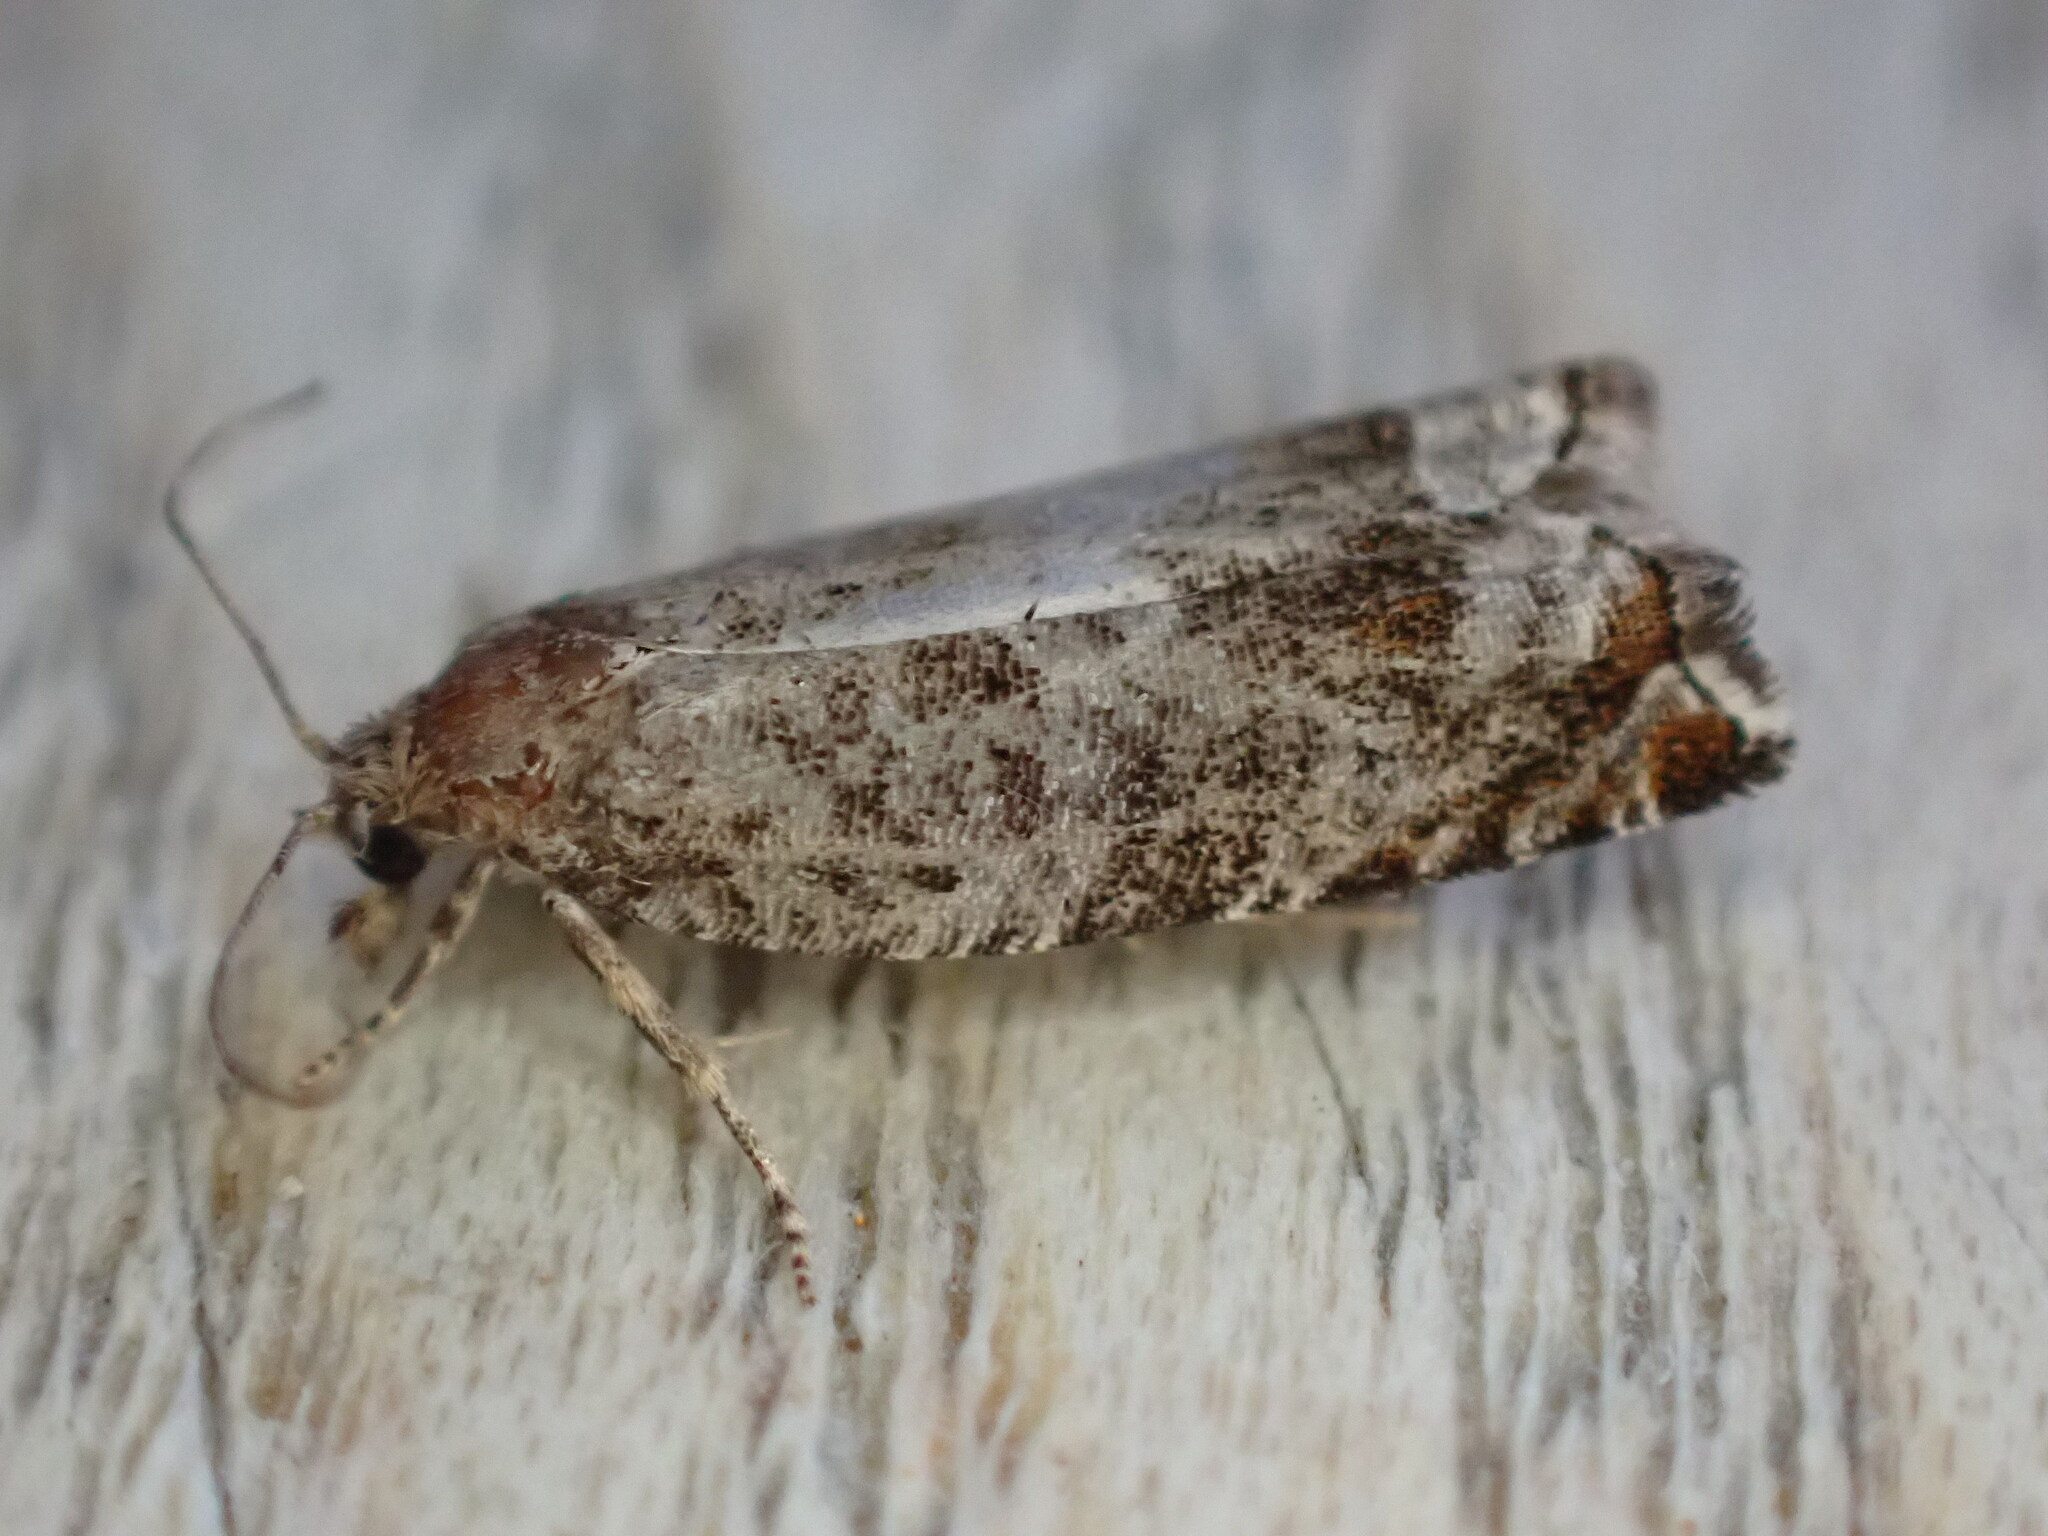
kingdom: Animalia
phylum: Arthropoda
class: Insecta
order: Lepidoptera
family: Tortricidae
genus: Ancylis
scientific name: Ancylis achatana
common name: Triangle-marked roller
